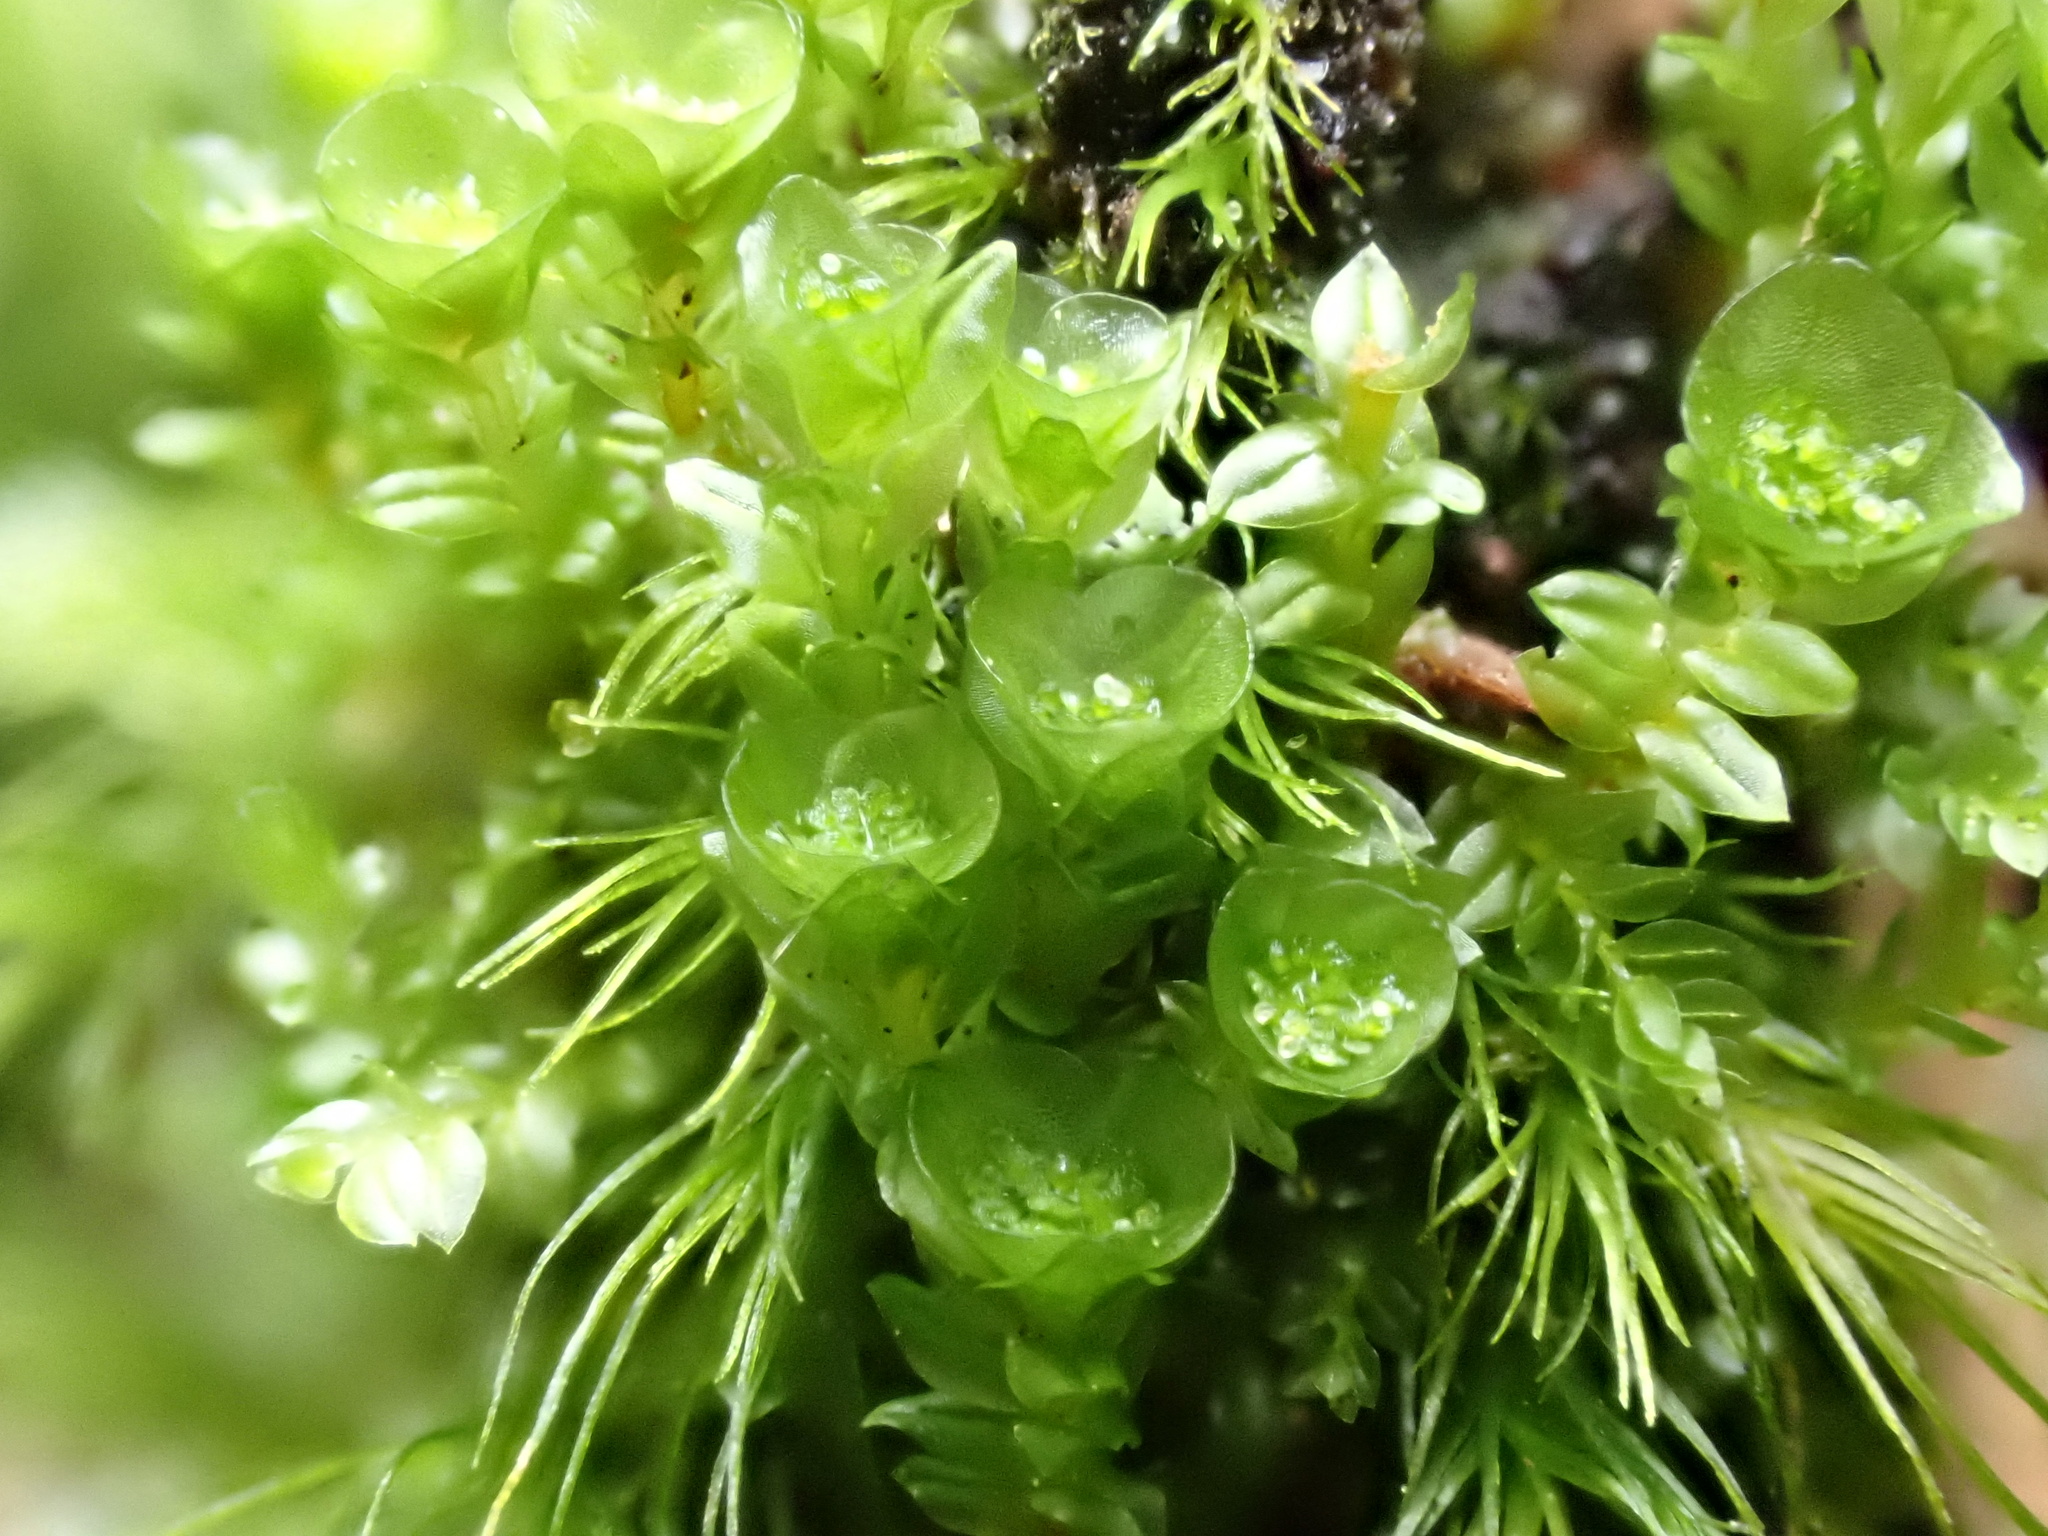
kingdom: Plantae
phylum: Bryophyta
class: Polytrichopsida
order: Tetraphidales
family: Tetraphidaceae
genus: Tetraphis
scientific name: Tetraphis pellucida
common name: Common four-toothed moss
